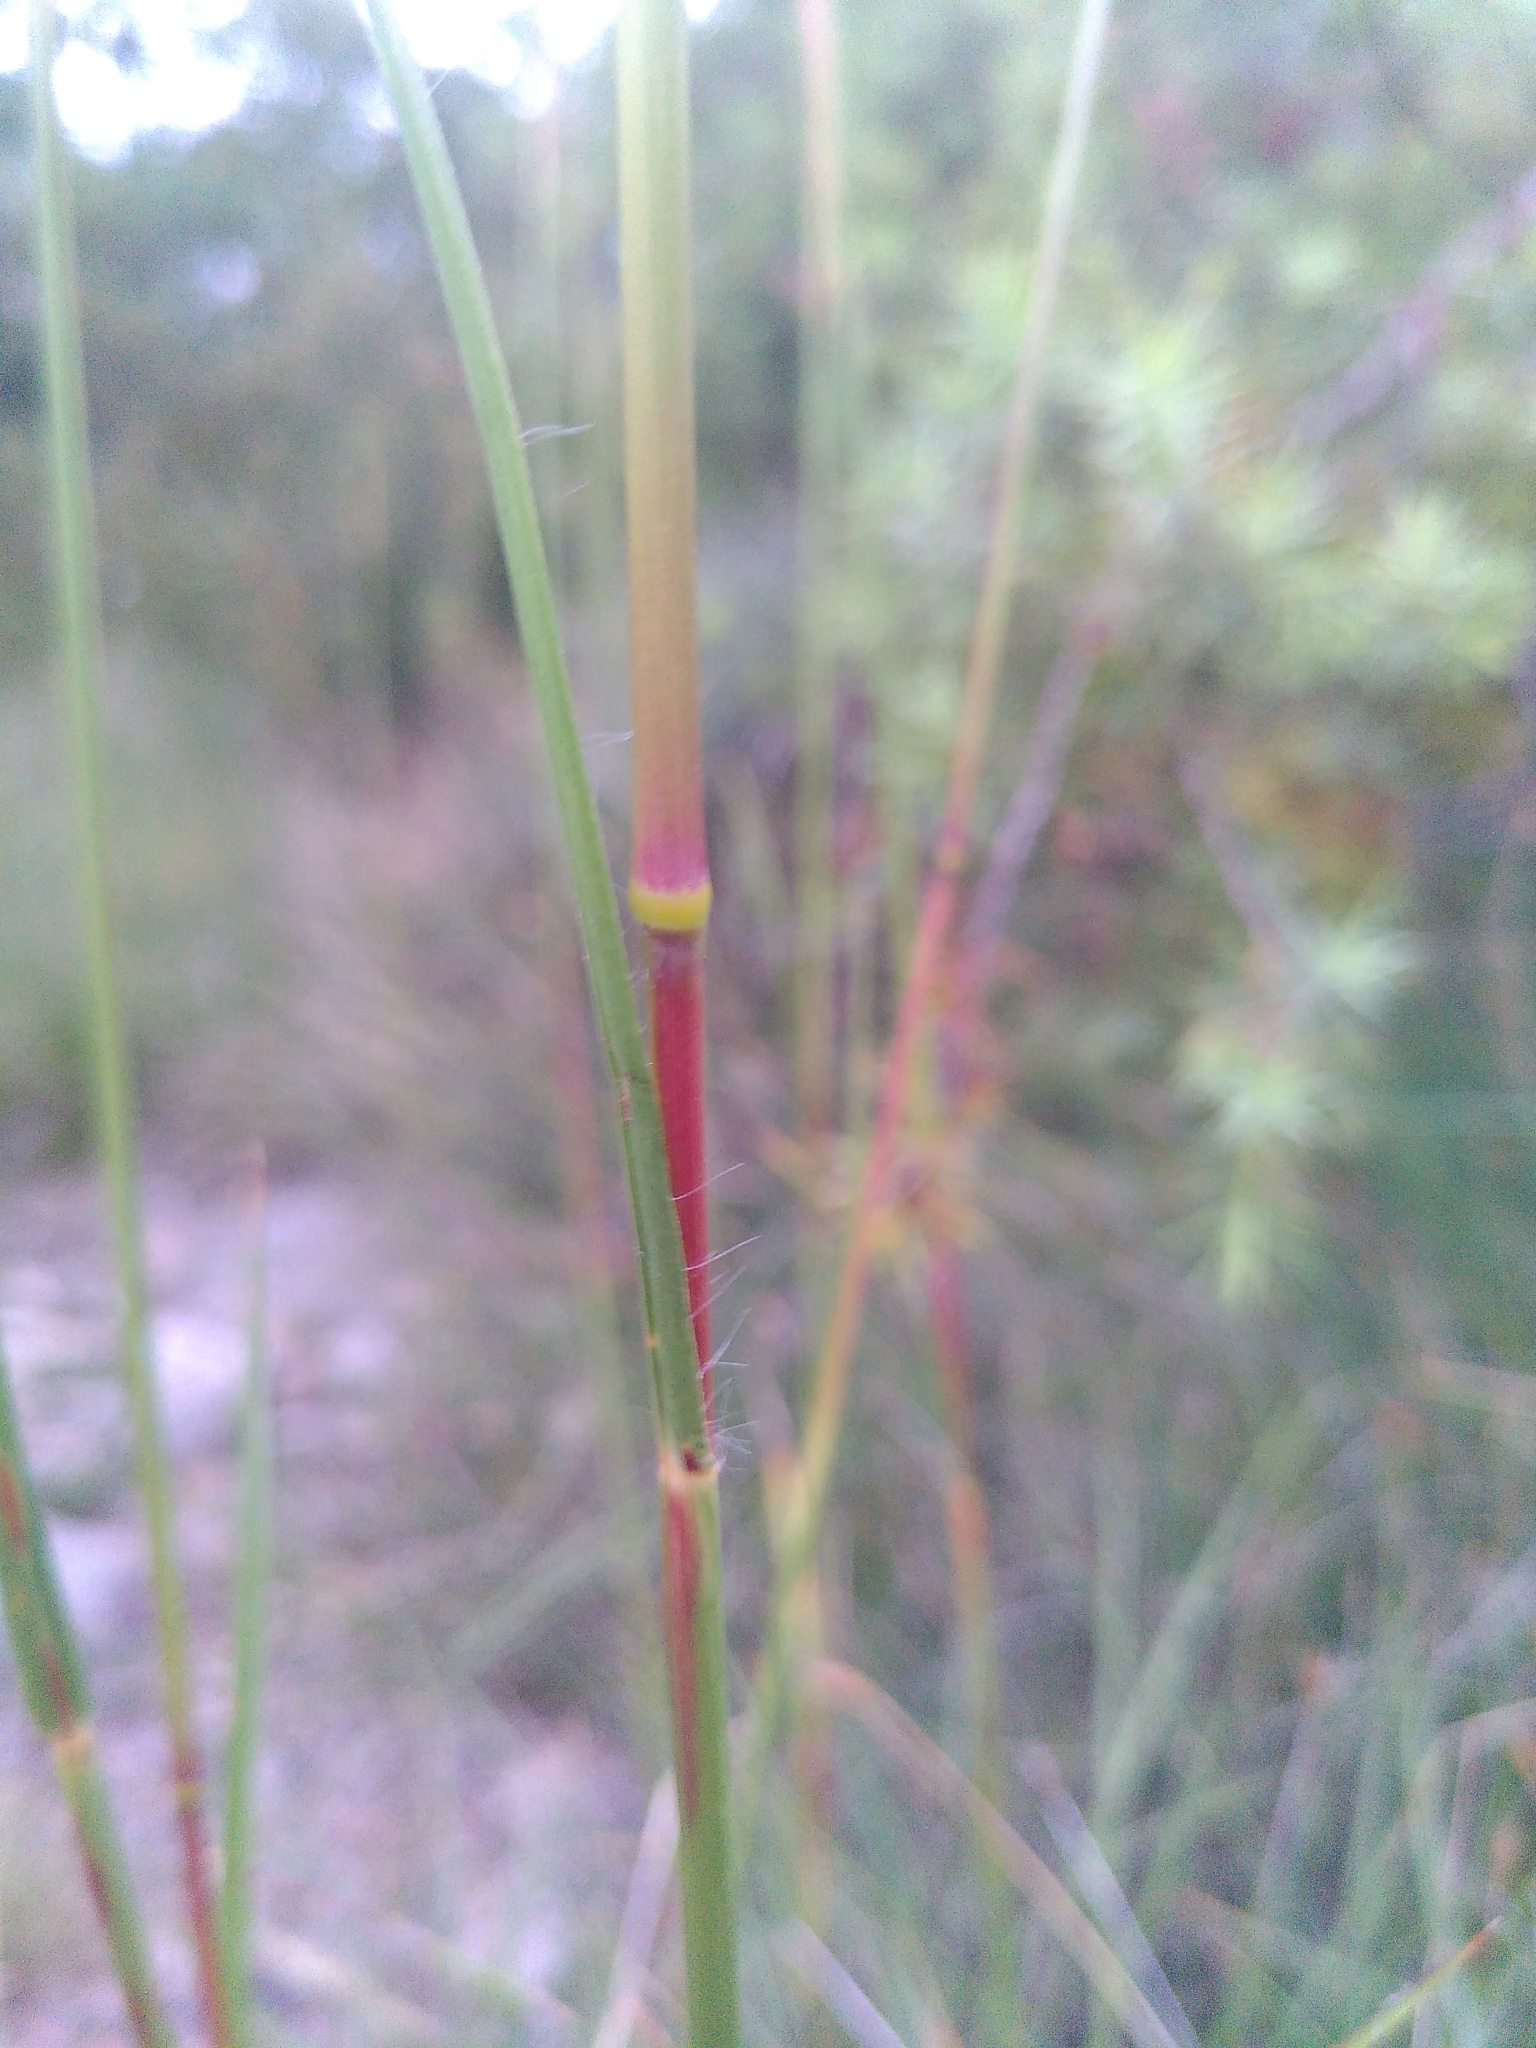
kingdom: Plantae
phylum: Tracheophyta
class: Liliopsida
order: Poales
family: Poaceae
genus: Chrysopogon
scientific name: Chrysopogon gryllus
